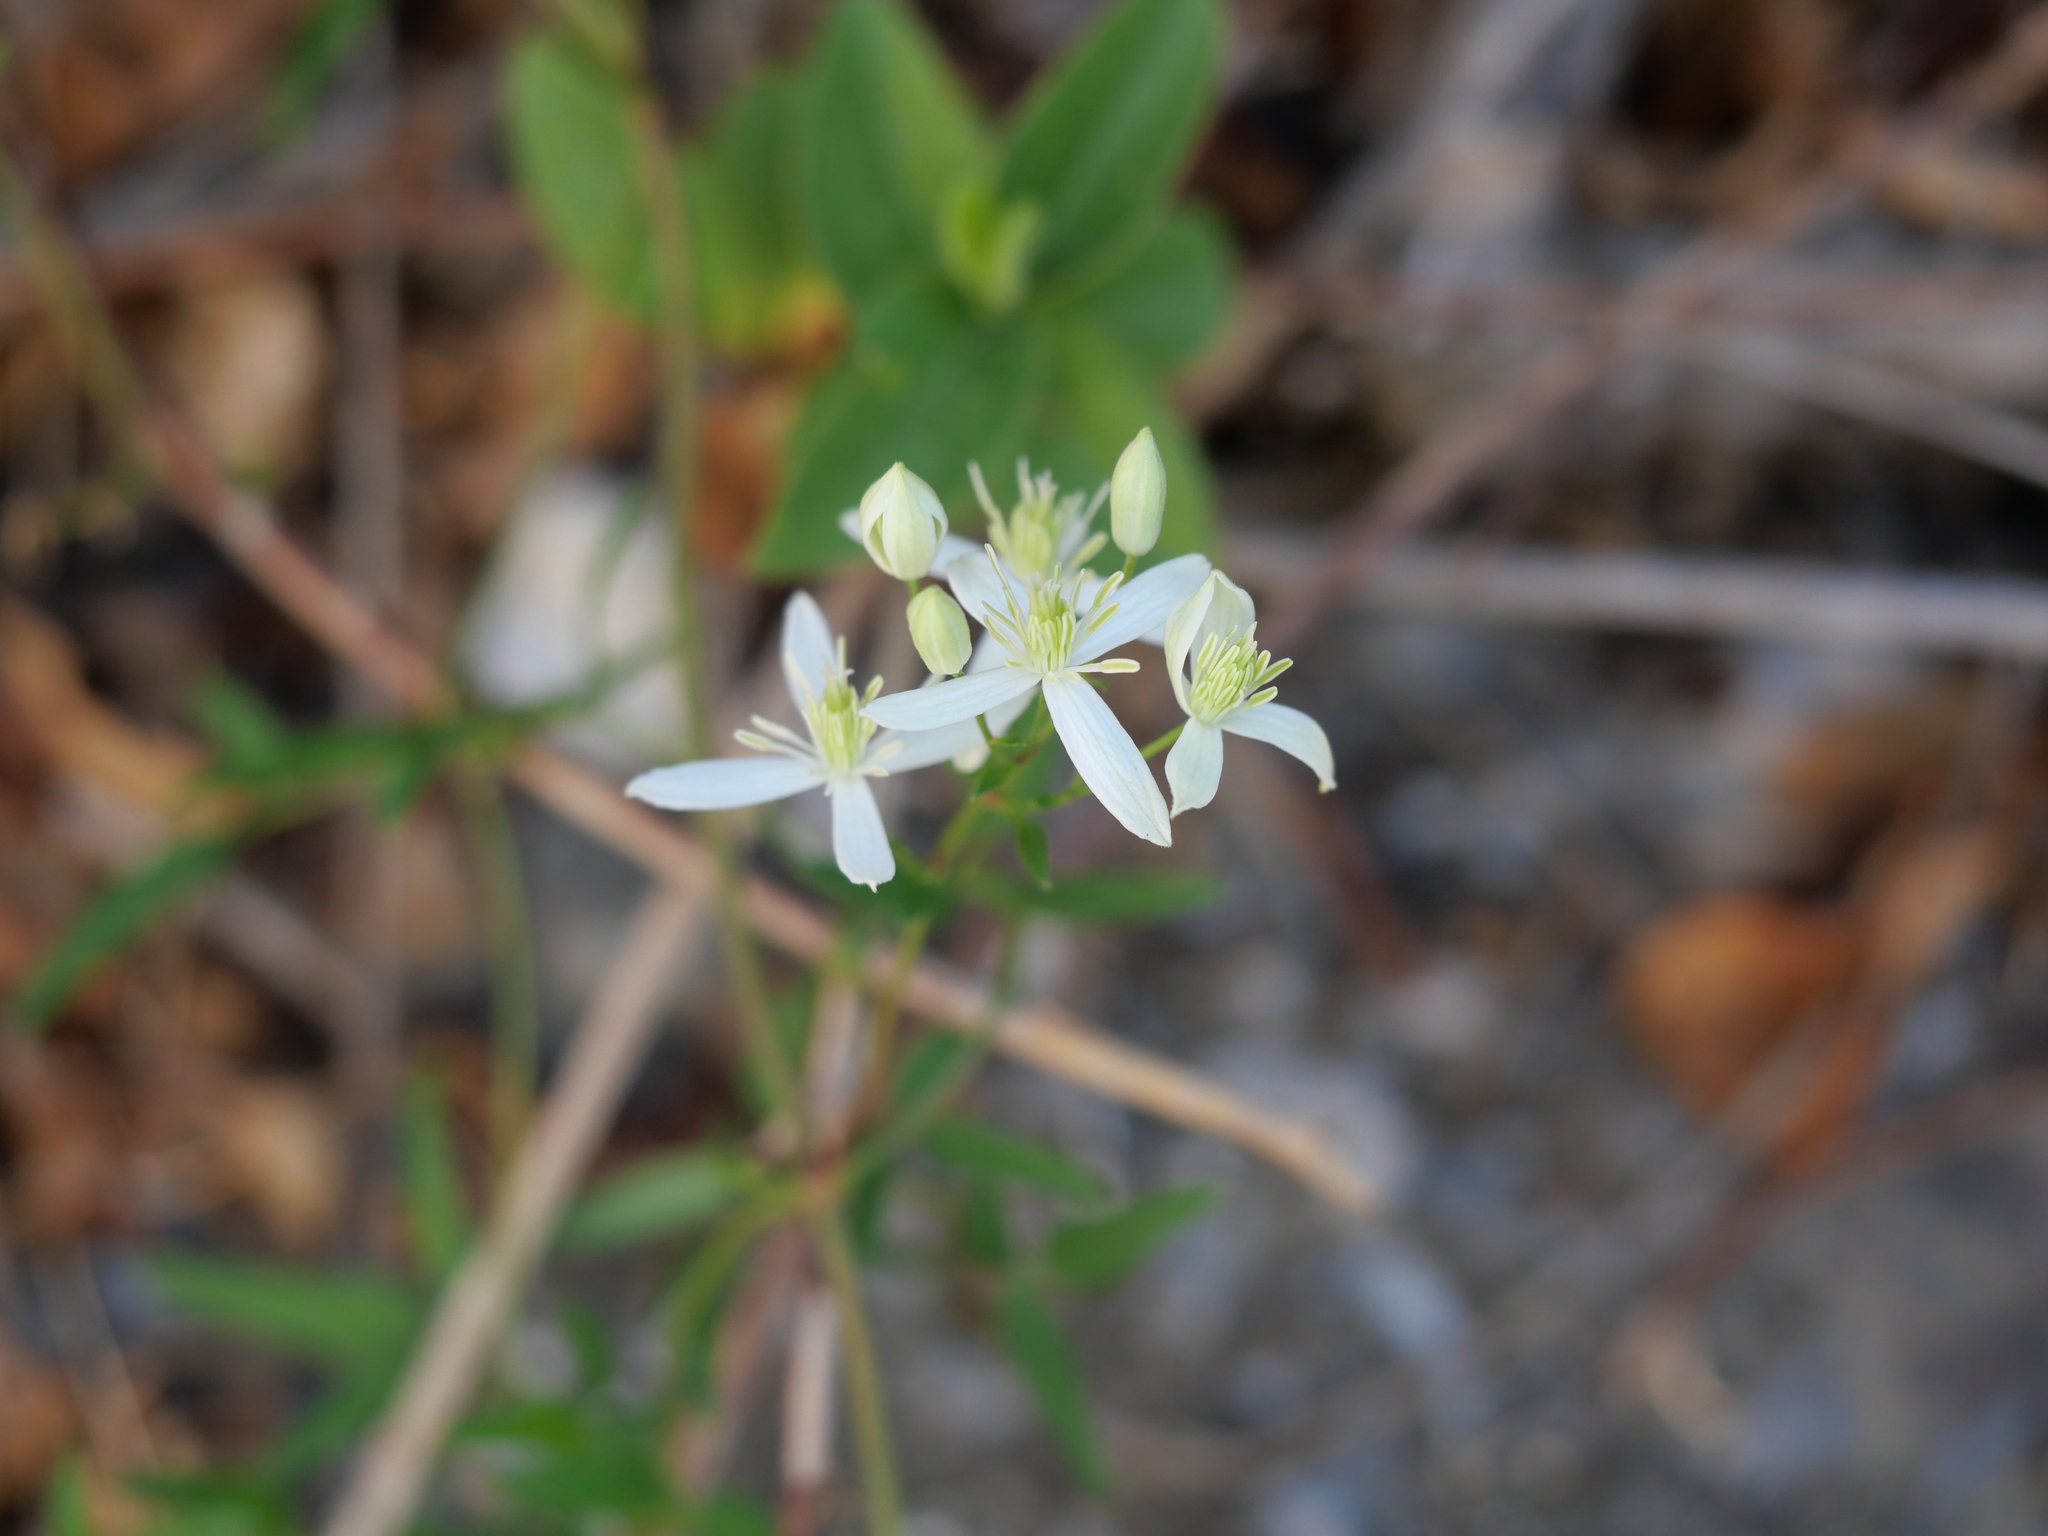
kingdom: Plantae
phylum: Tracheophyta
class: Magnoliopsida
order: Ranunculales
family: Ranunculaceae
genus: Clematis
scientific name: Clematis flammula
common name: Virgin's-bower
